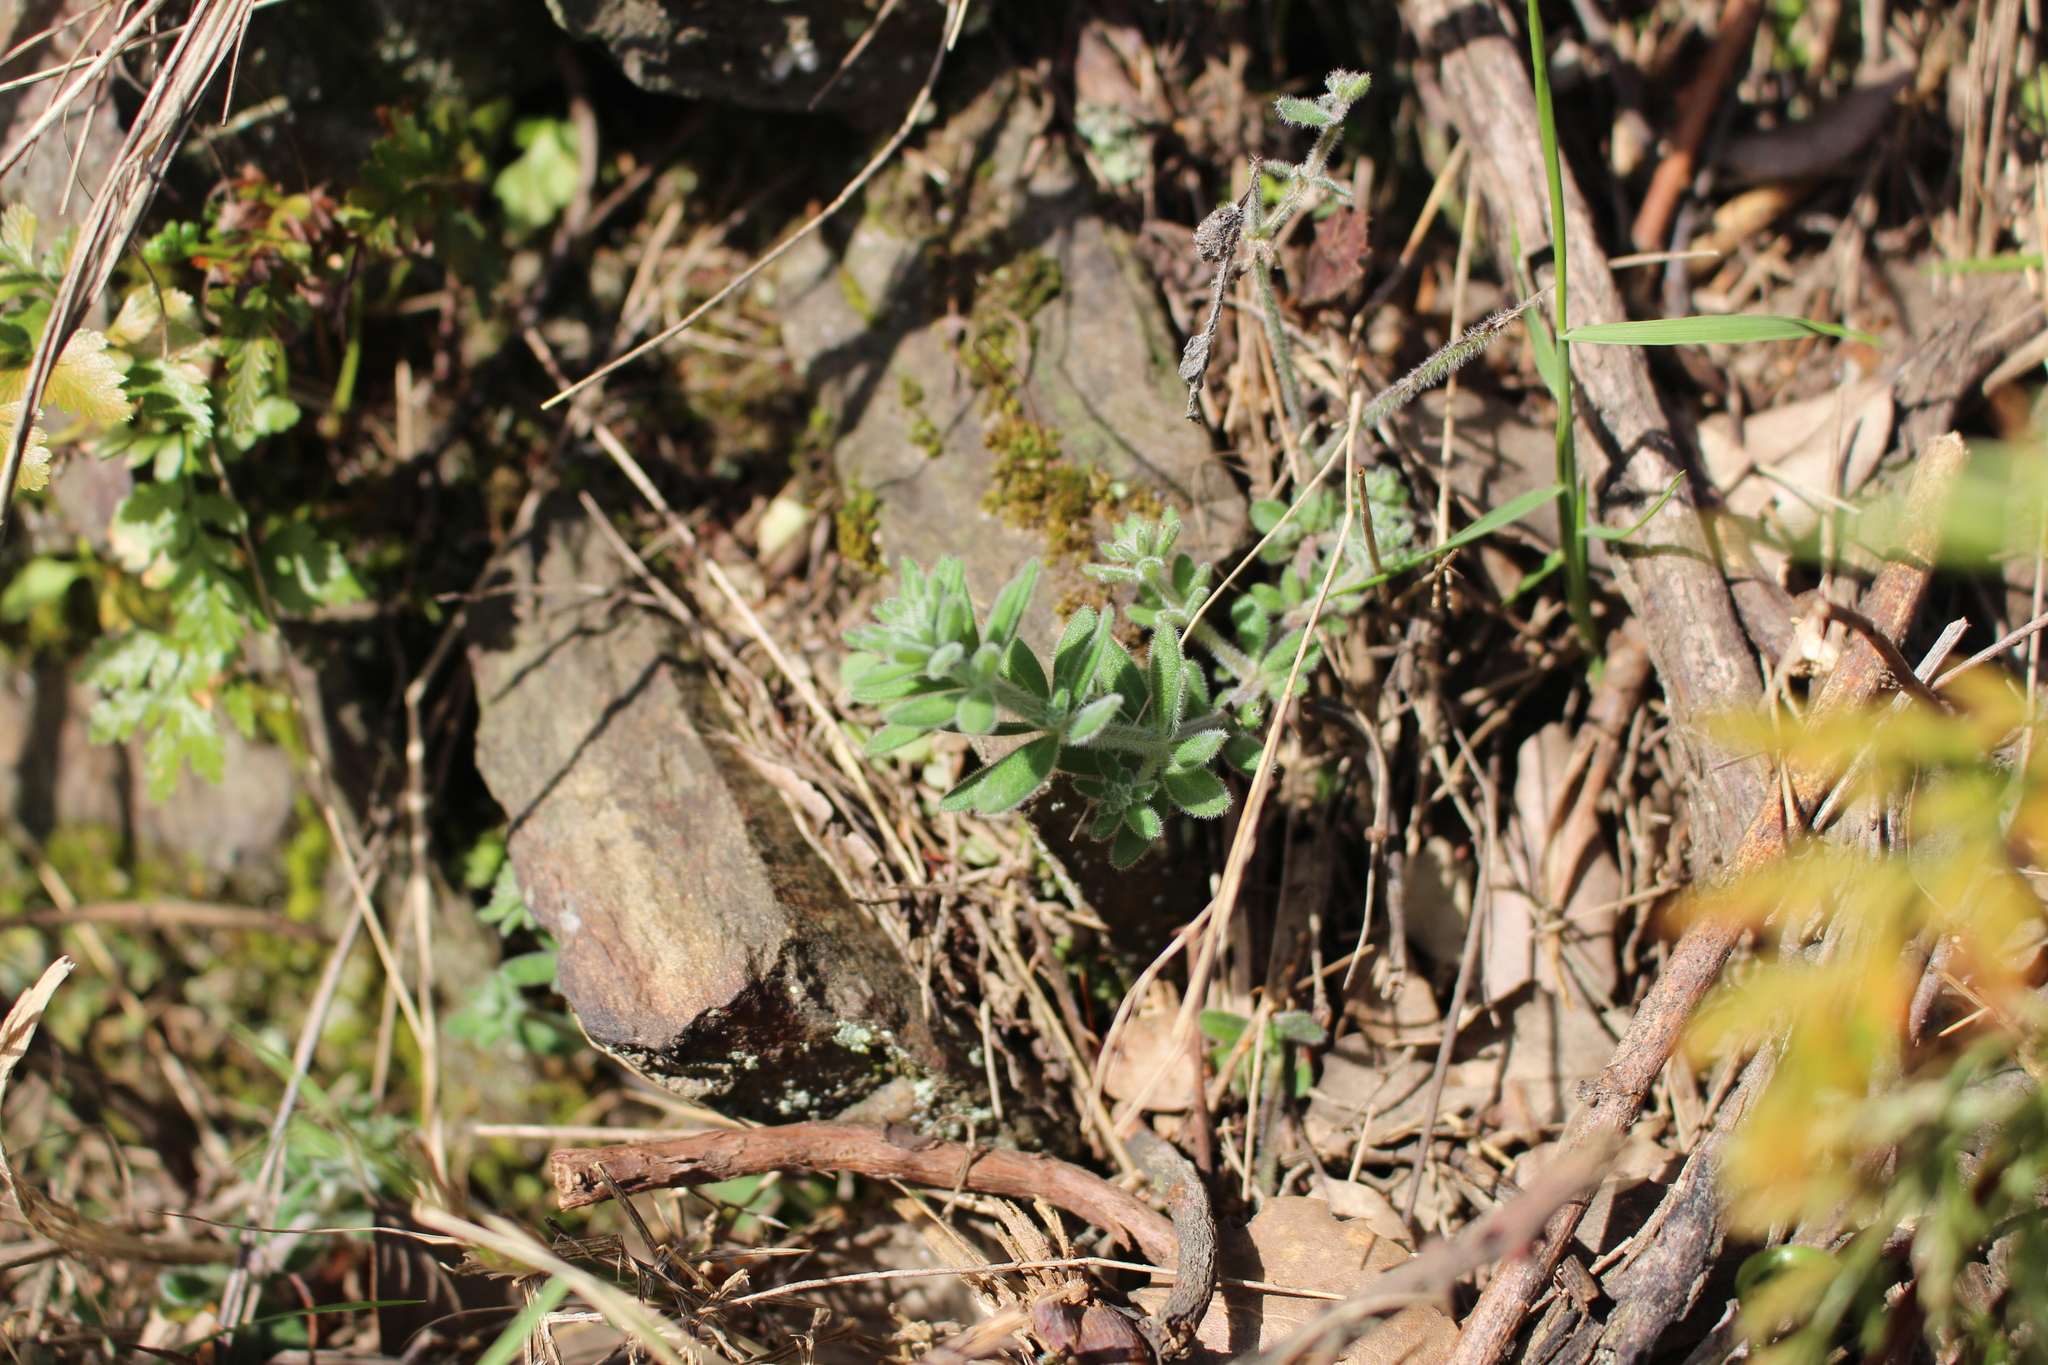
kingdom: Plantae
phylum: Tracheophyta
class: Magnoliopsida
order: Gentianales
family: Rubiaceae
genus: Galium
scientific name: Galium maritimum
